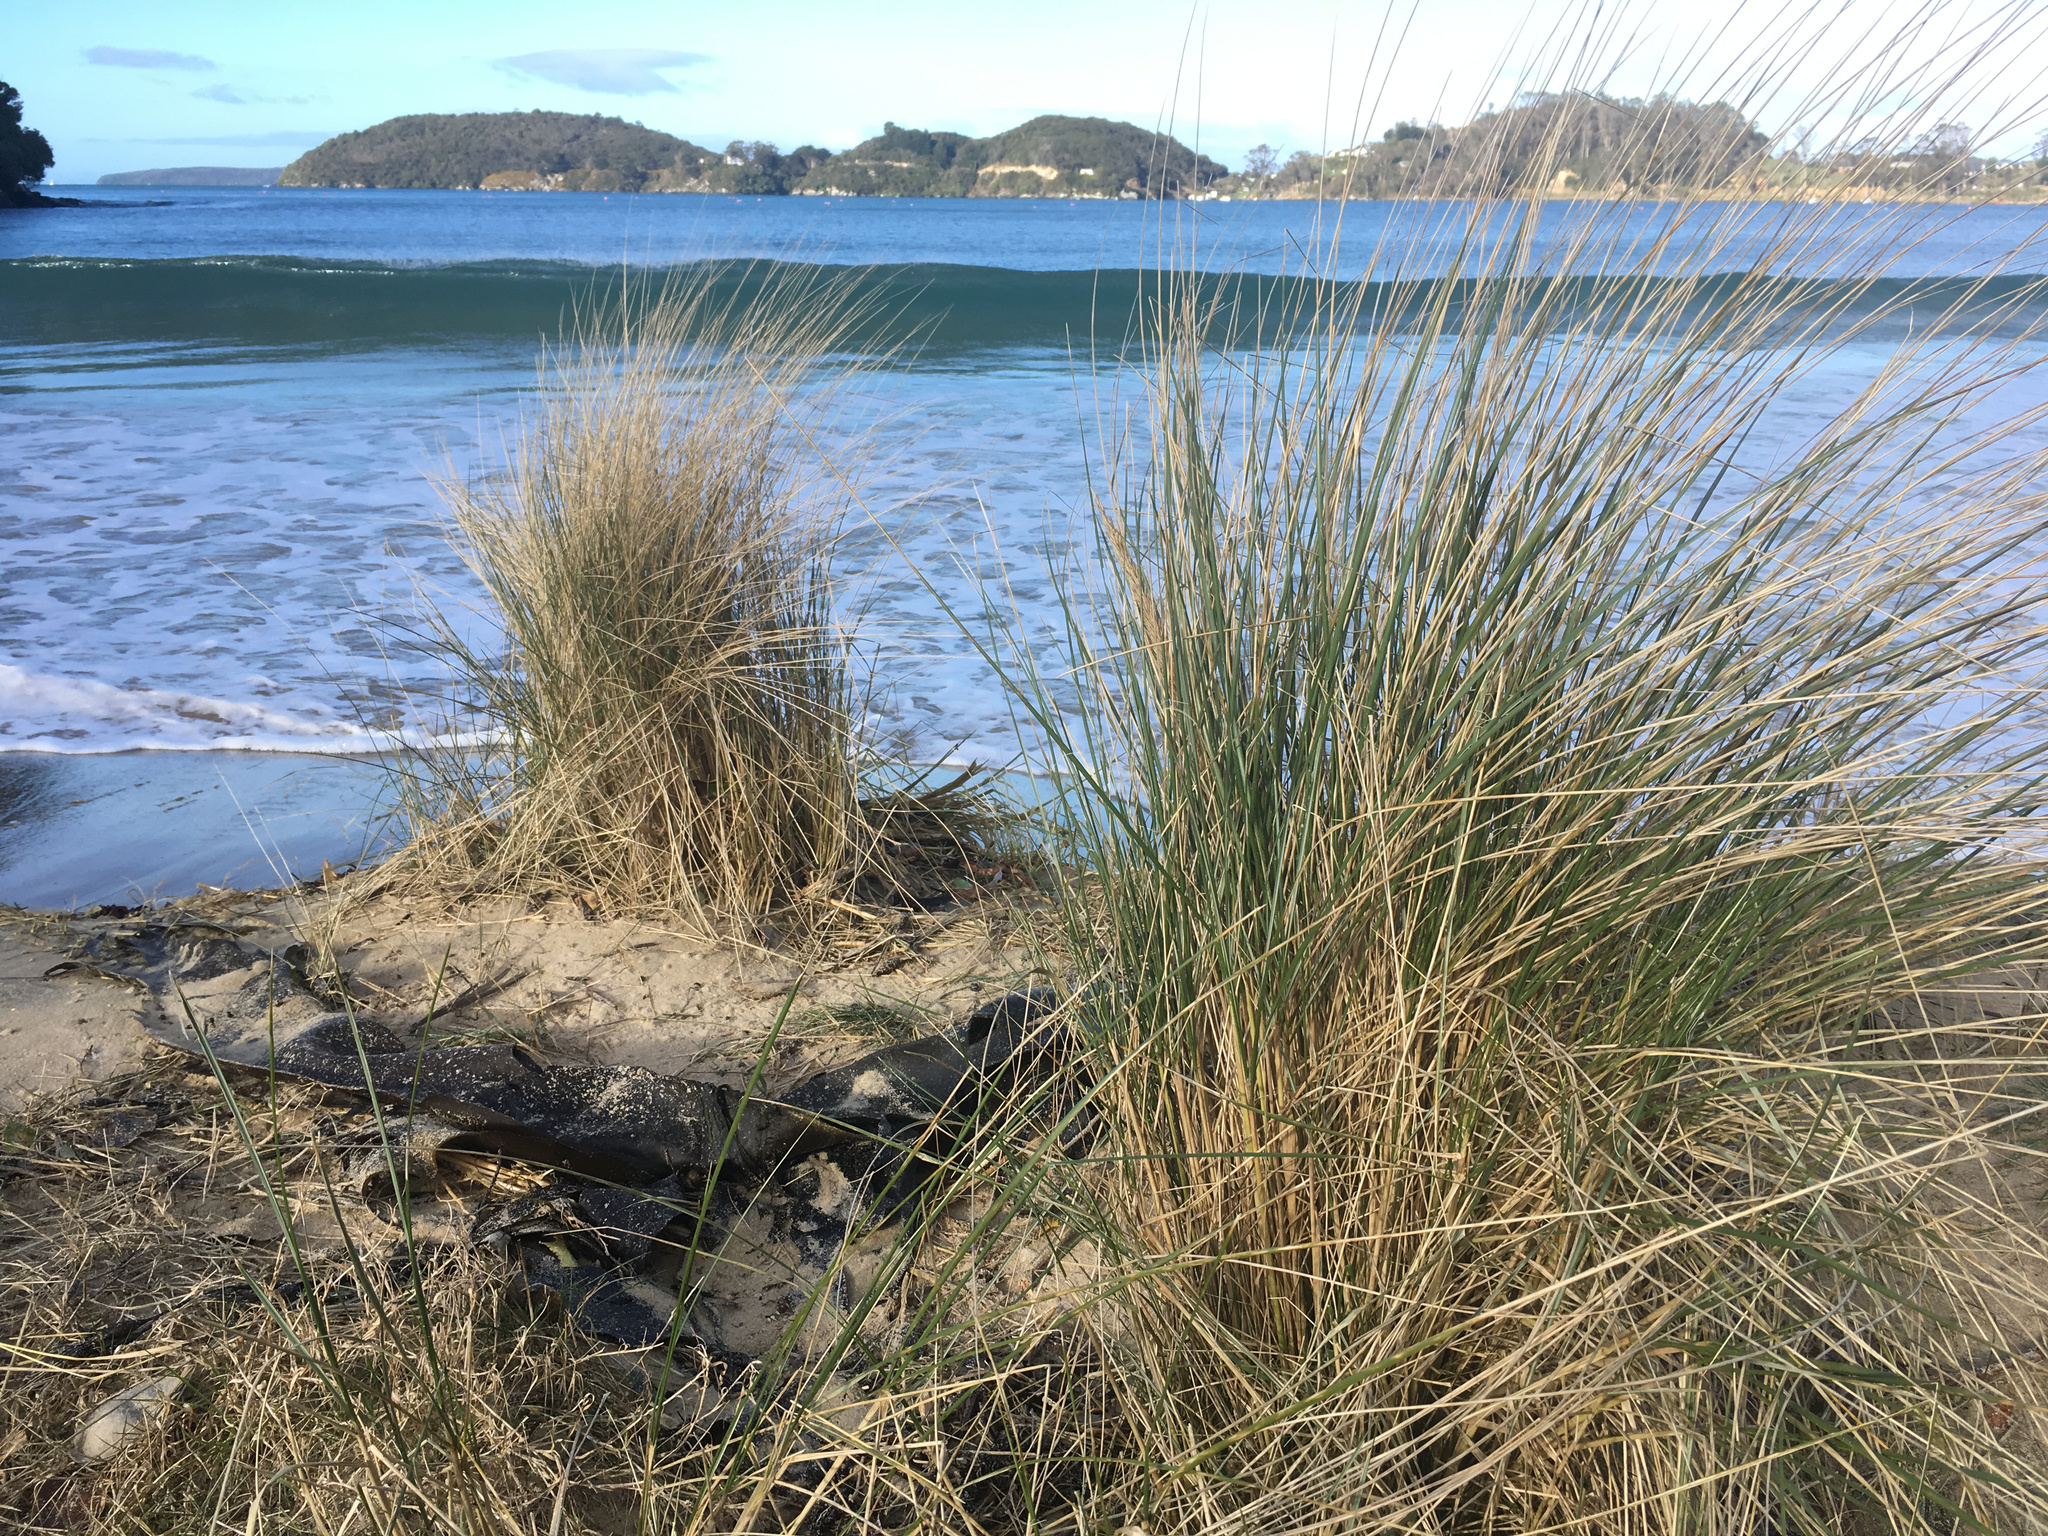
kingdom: Plantae
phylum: Tracheophyta
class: Liliopsida
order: Poales
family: Poaceae
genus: Calamagrostis
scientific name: Calamagrostis arenaria
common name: European beachgrass
